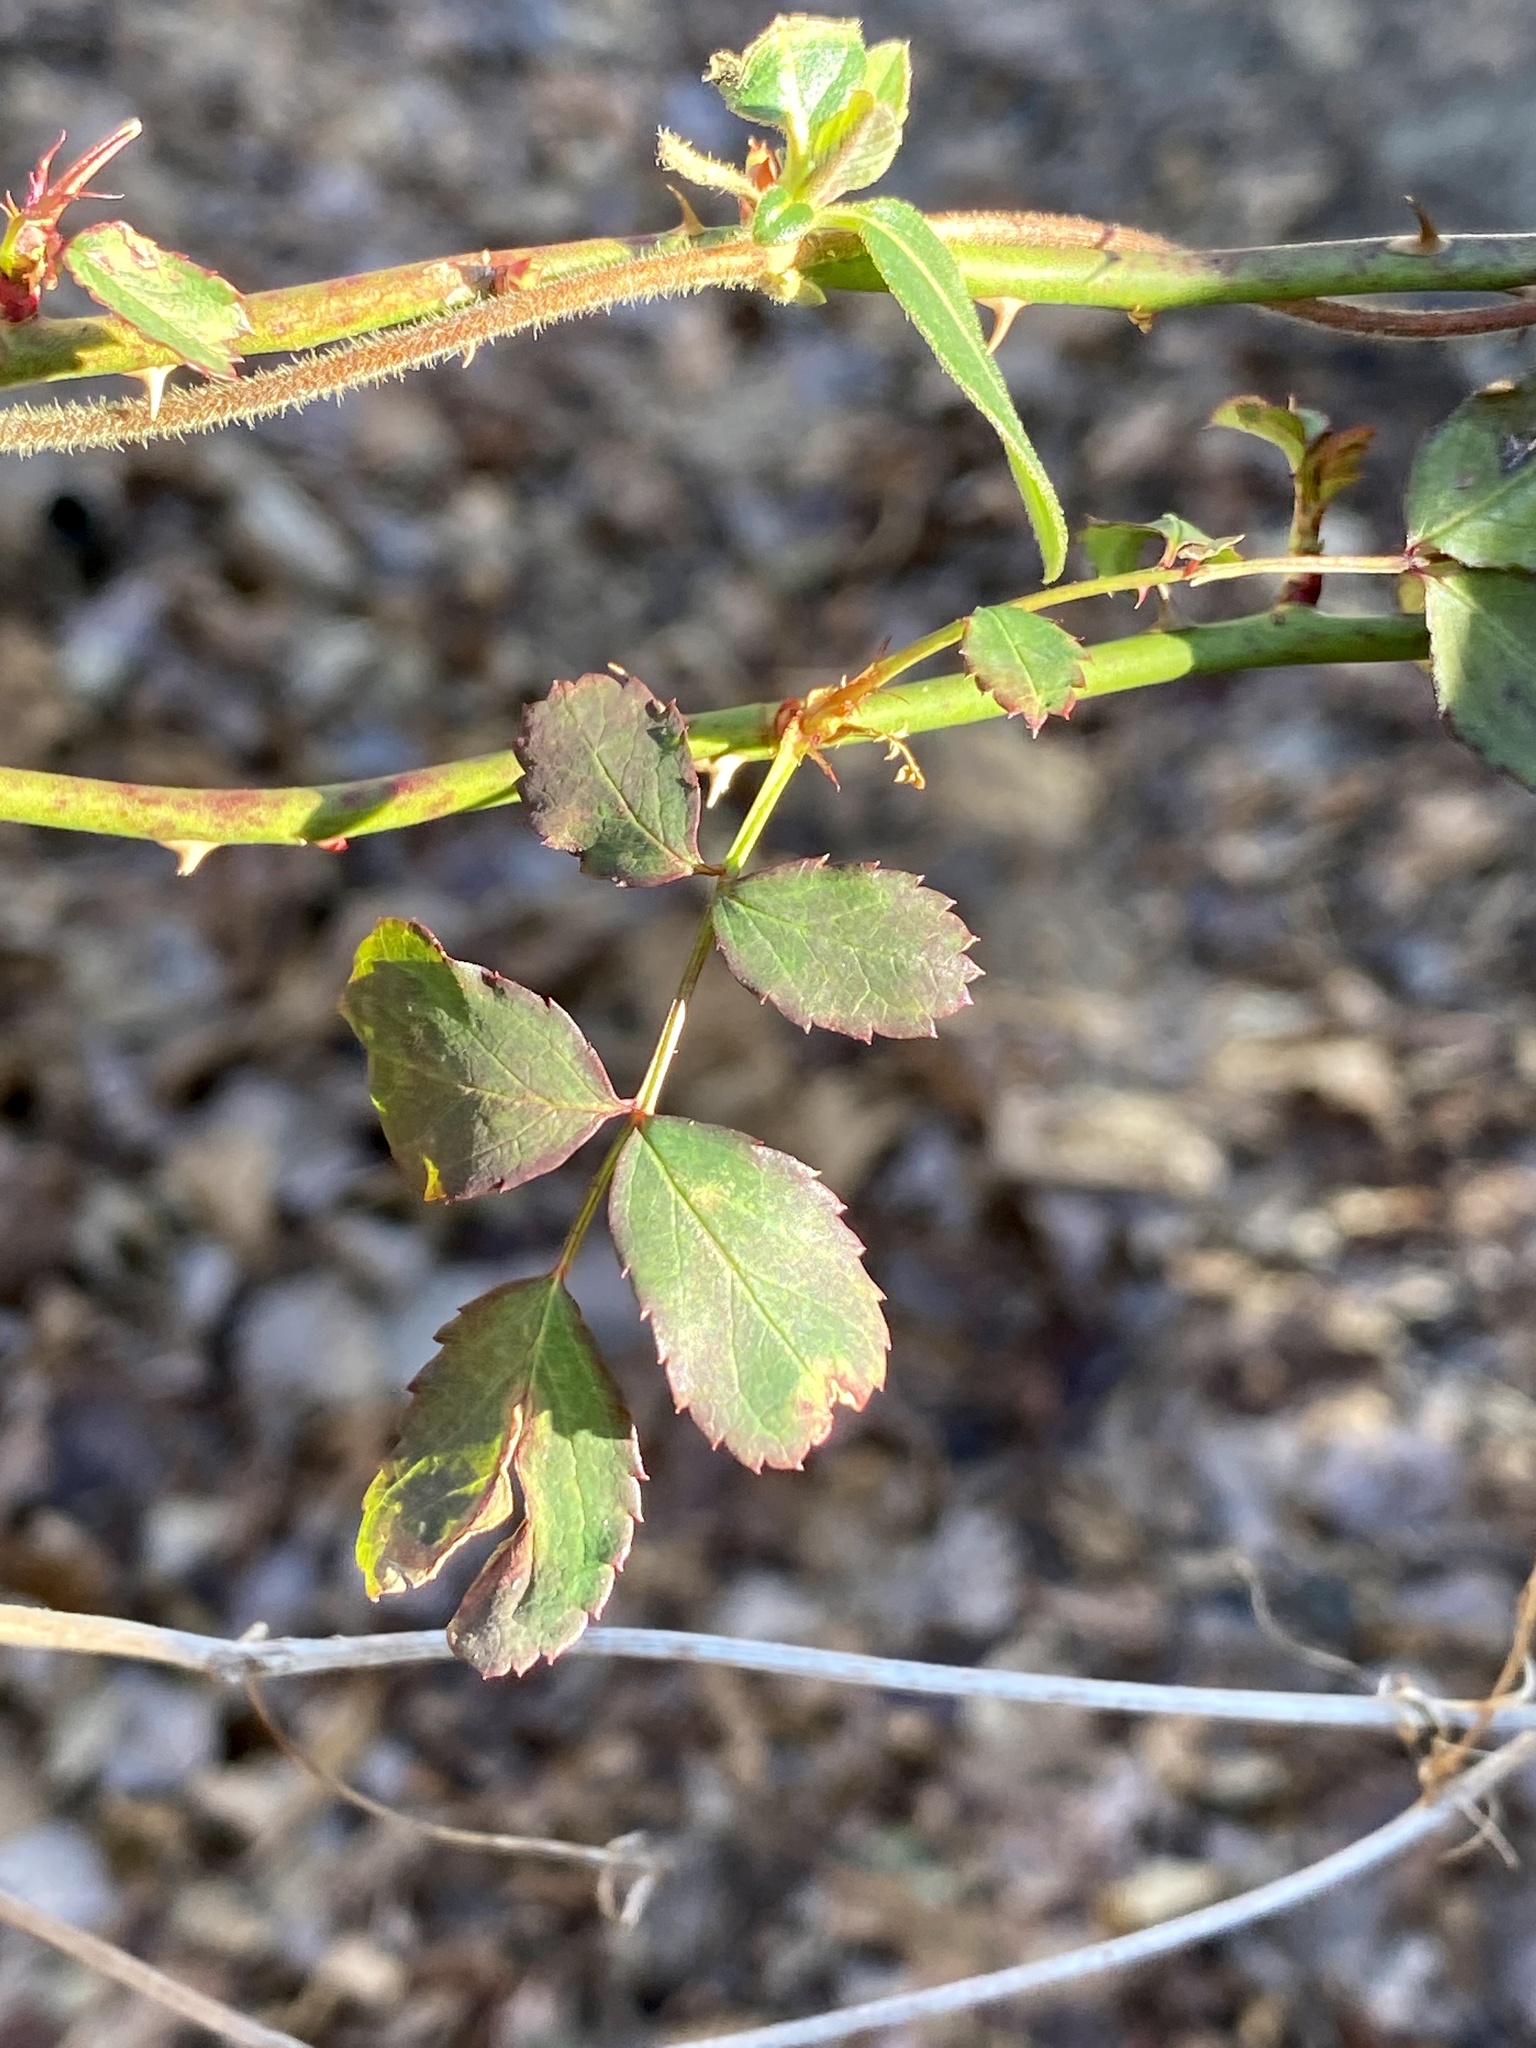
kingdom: Plantae
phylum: Tracheophyta
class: Magnoliopsida
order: Rosales
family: Rosaceae
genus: Rosa
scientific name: Rosa multiflora
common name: Multiflora rose
